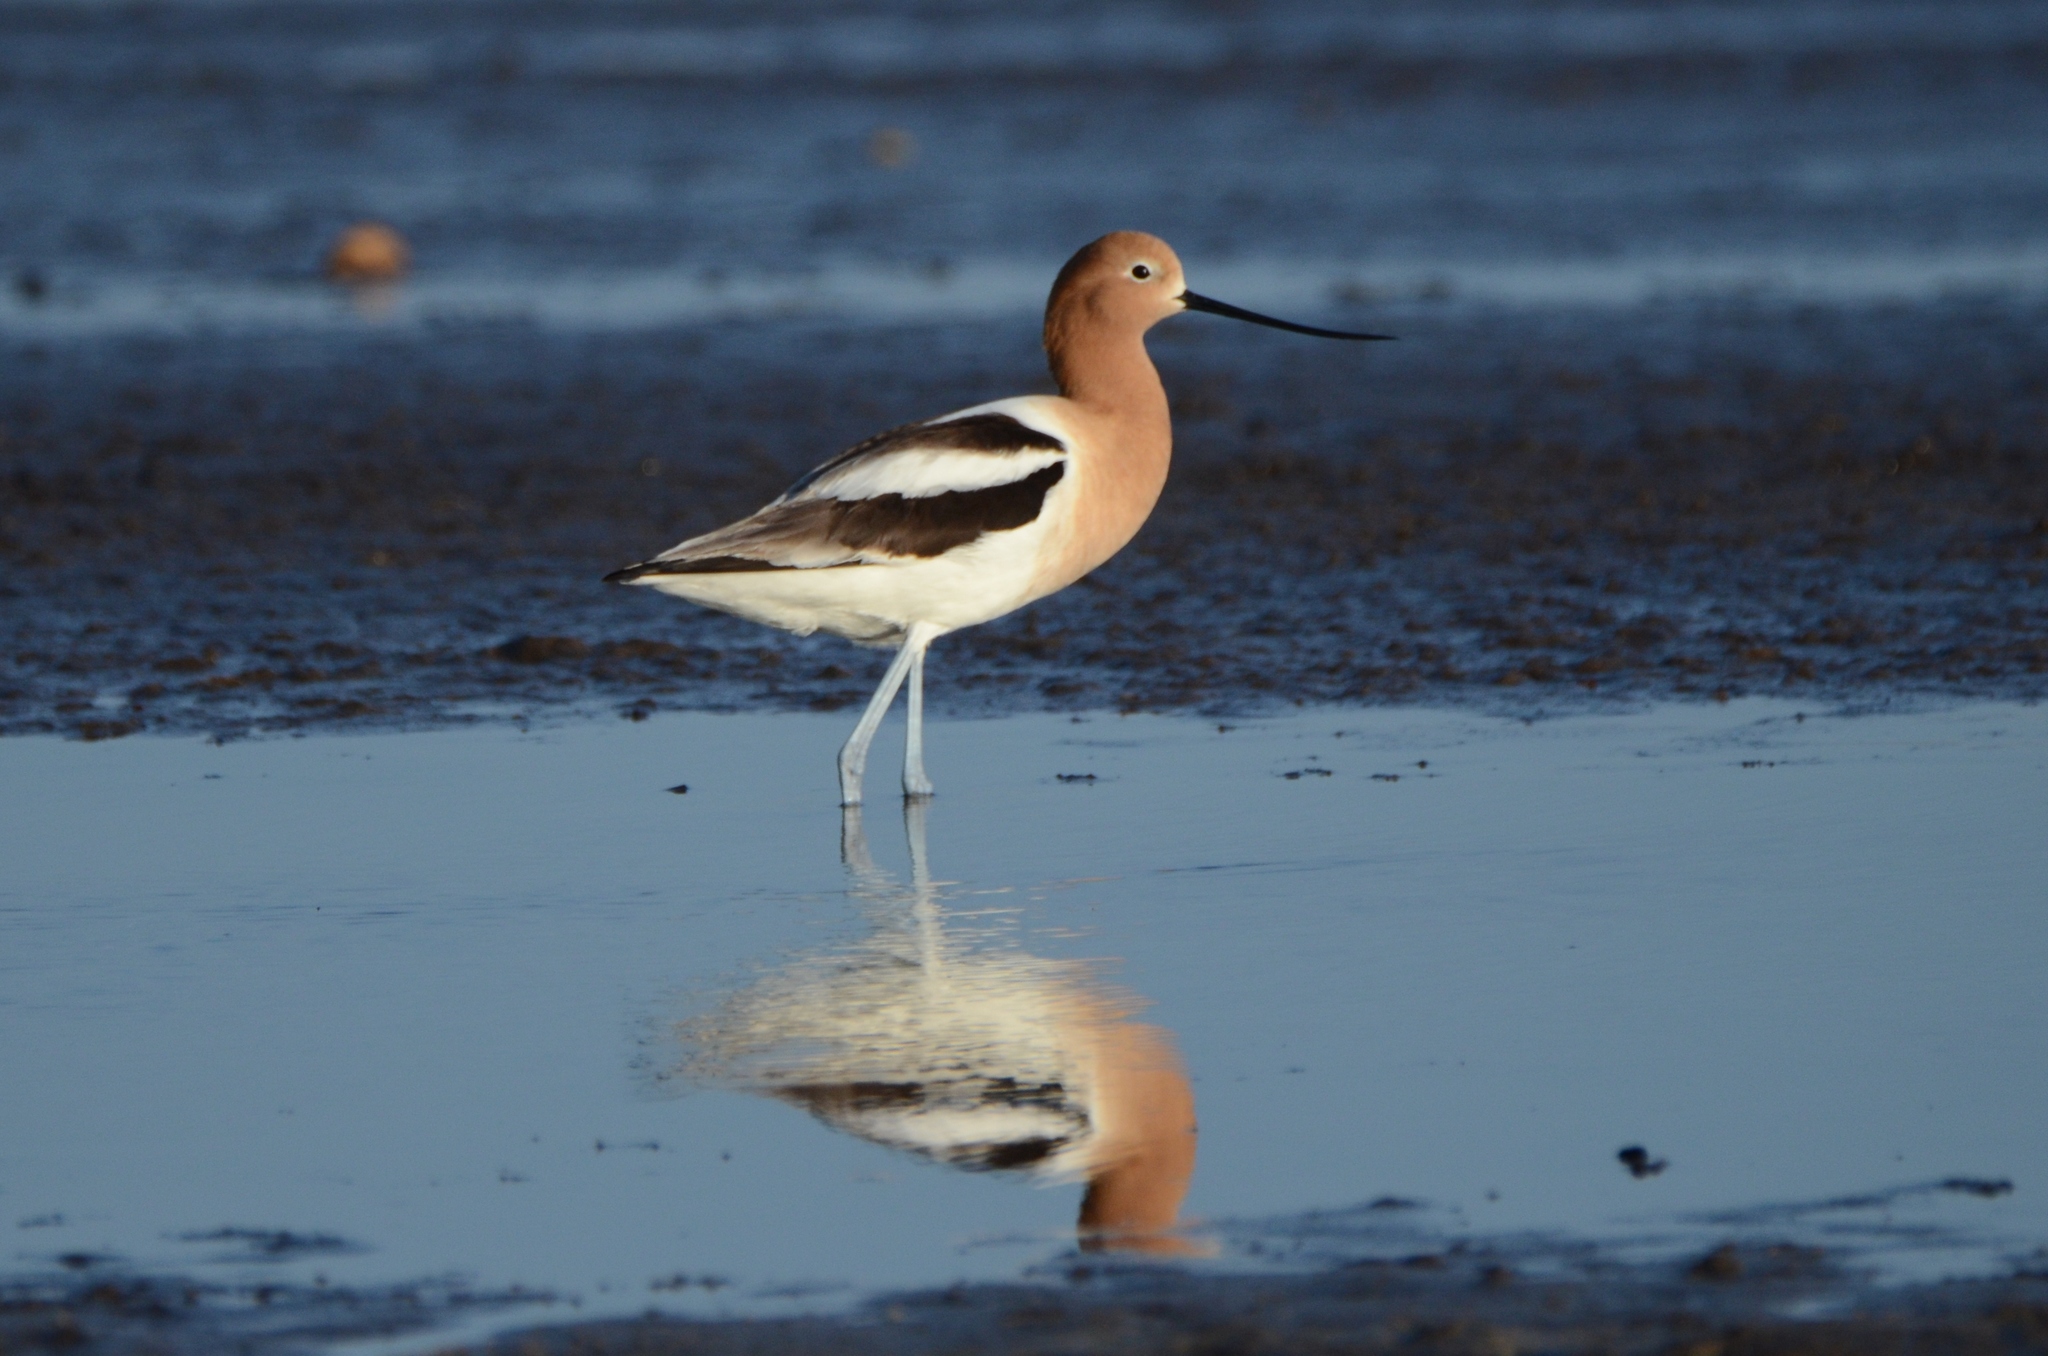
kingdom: Animalia
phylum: Chordata
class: Aves
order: Charadriiformes
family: Recurvirostridae
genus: Recurvirostra
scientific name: Recurvirostra americana
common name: American avocet
